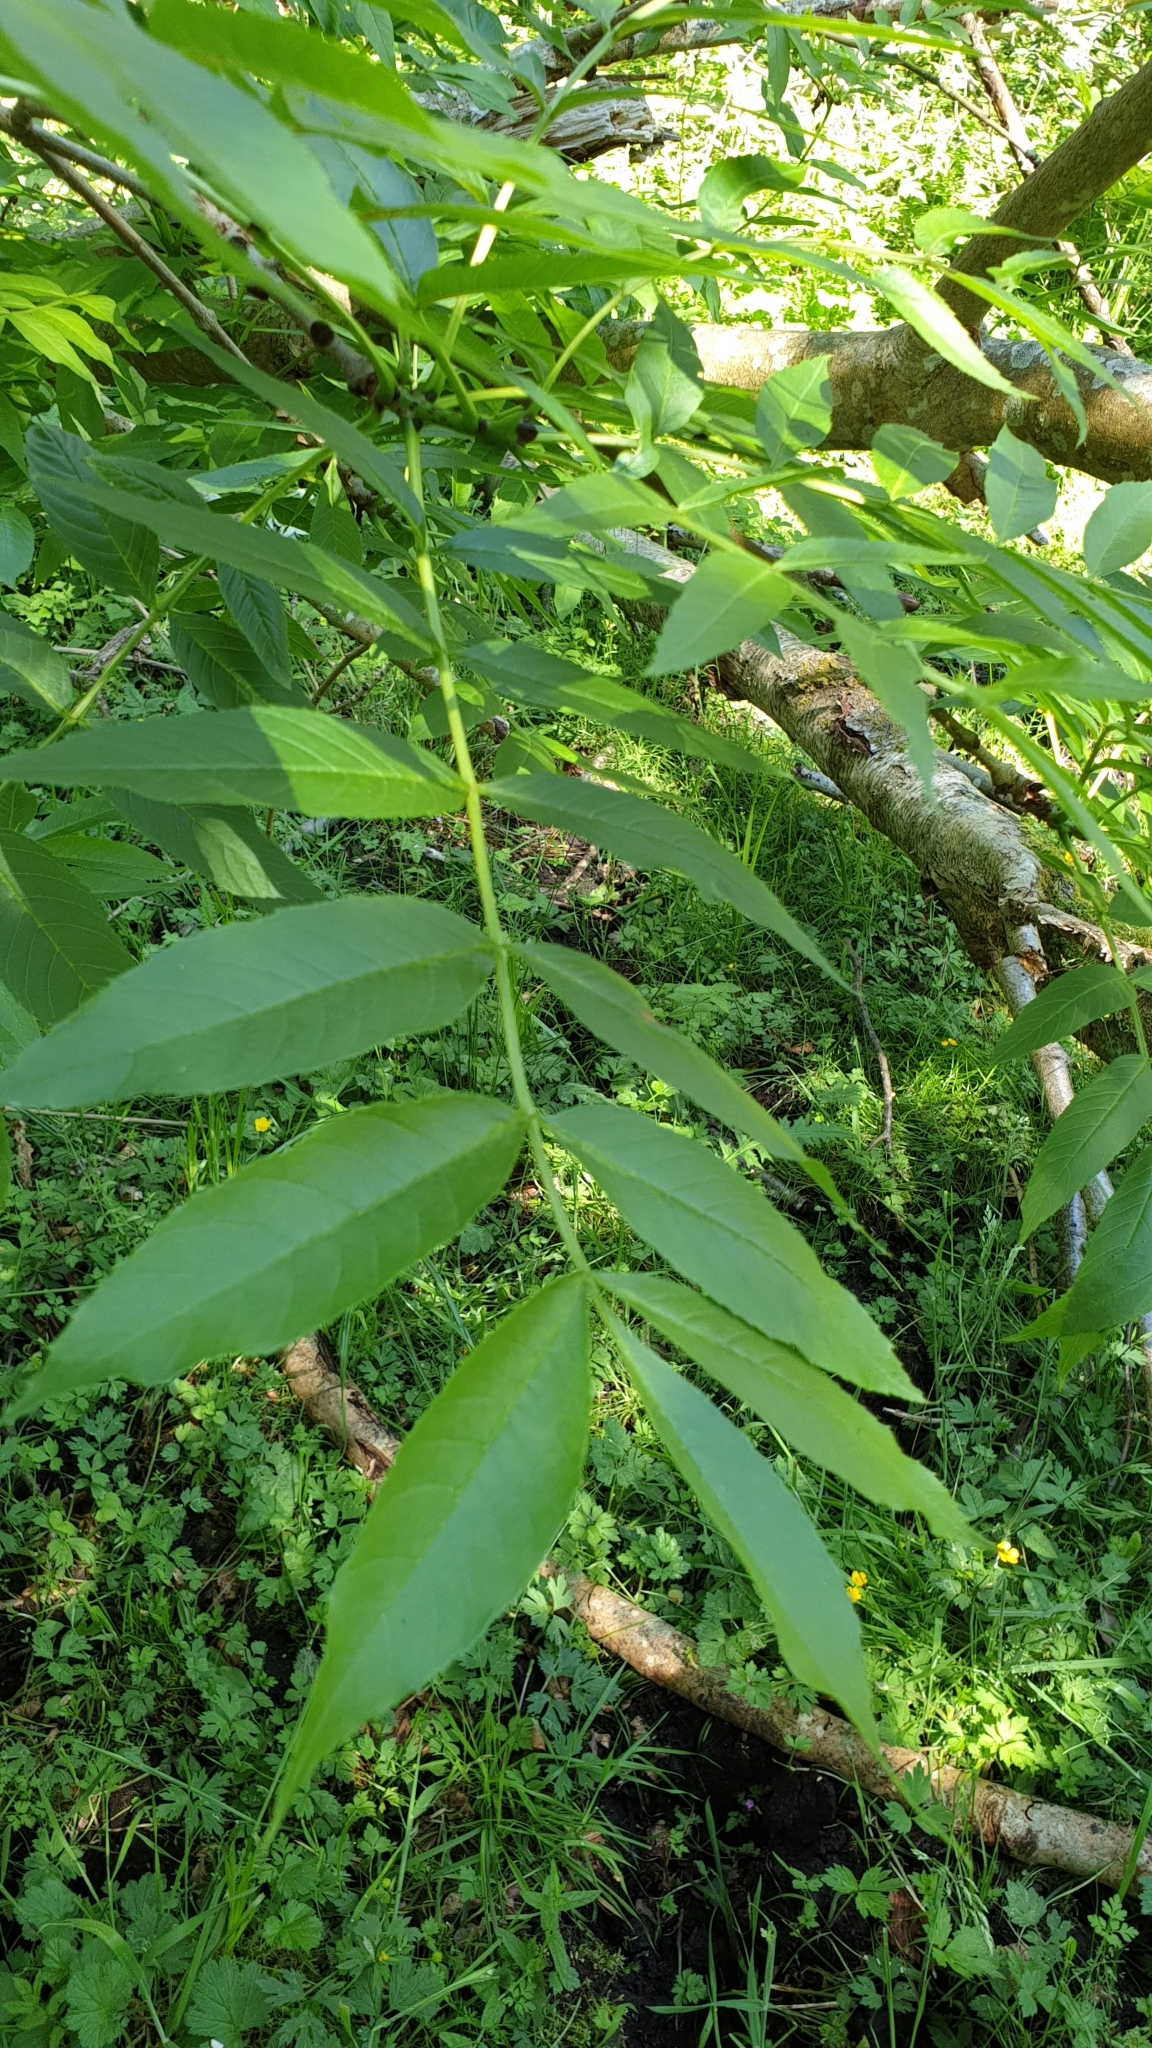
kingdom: Plantae
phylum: Tracheophyta
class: Magnoliopsida
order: Lamiales
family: Oleaceae
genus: Fraxinus
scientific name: Fraxinus excelsior
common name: European ash
